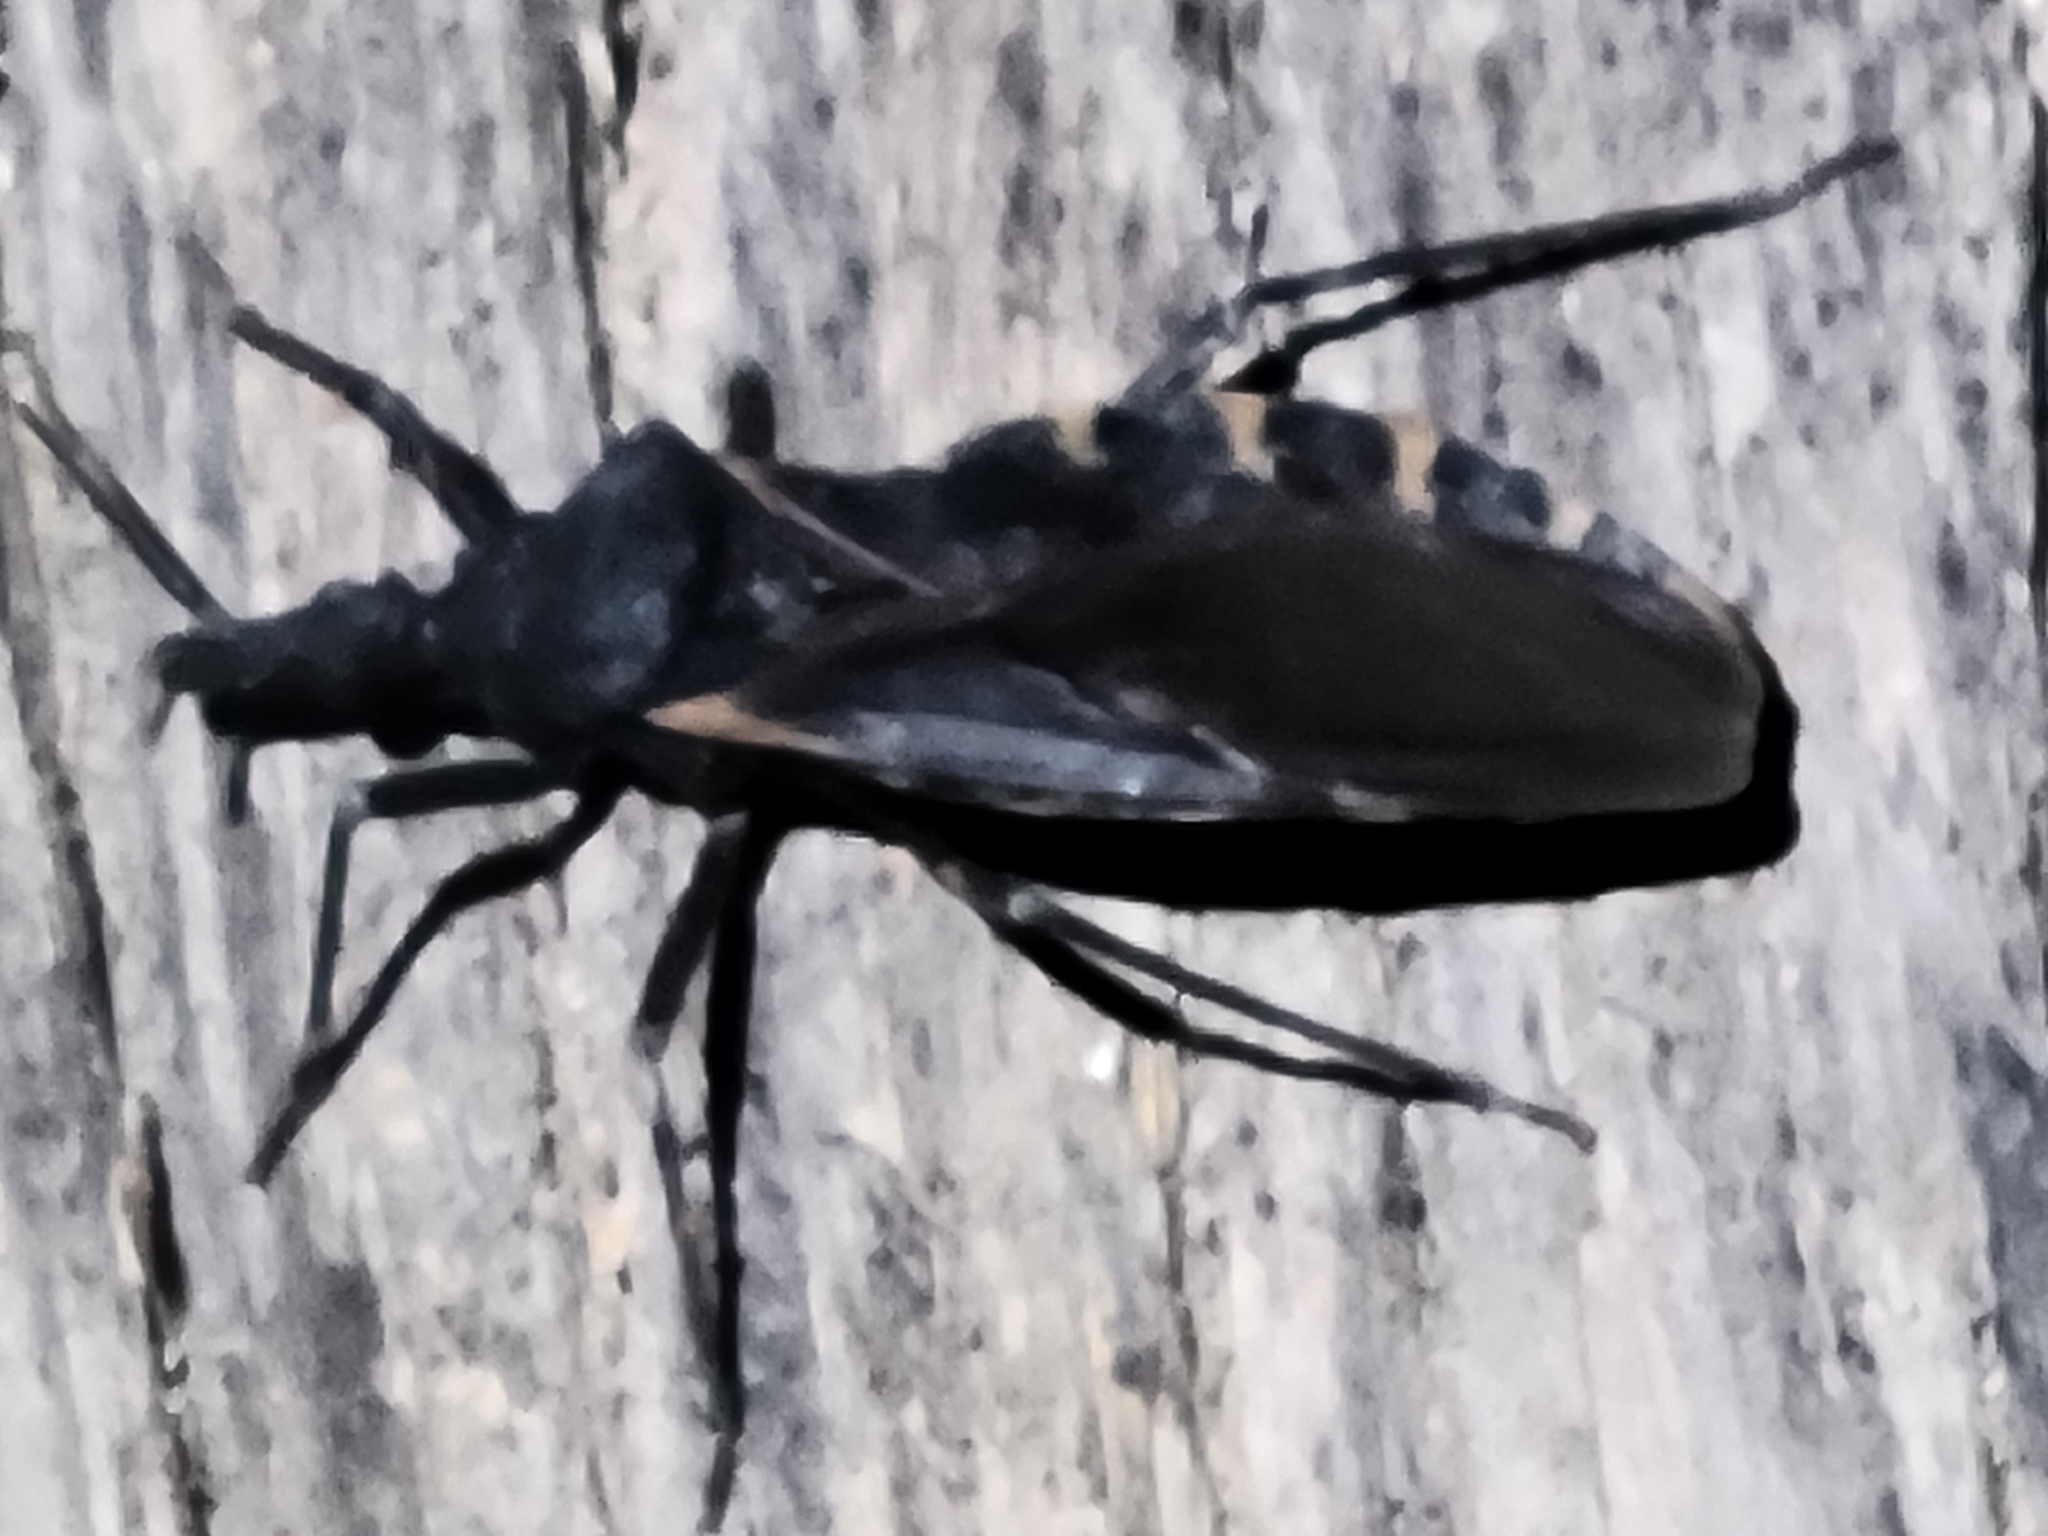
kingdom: Animalia
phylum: Arthropoda
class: Insecta
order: Hemiptera
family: Reduviidae
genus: Triatoma
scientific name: Triatoma gerstaeckeri
